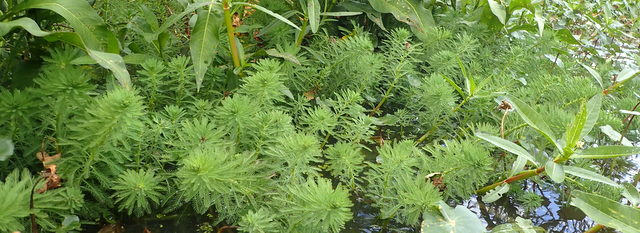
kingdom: Plantae
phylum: Tracheophyta
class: Magnoliopsida
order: Saxifragales
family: Haloragaceae
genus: Myriophyllum
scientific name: Myriophyllum aquaticum
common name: Parrot's feather
